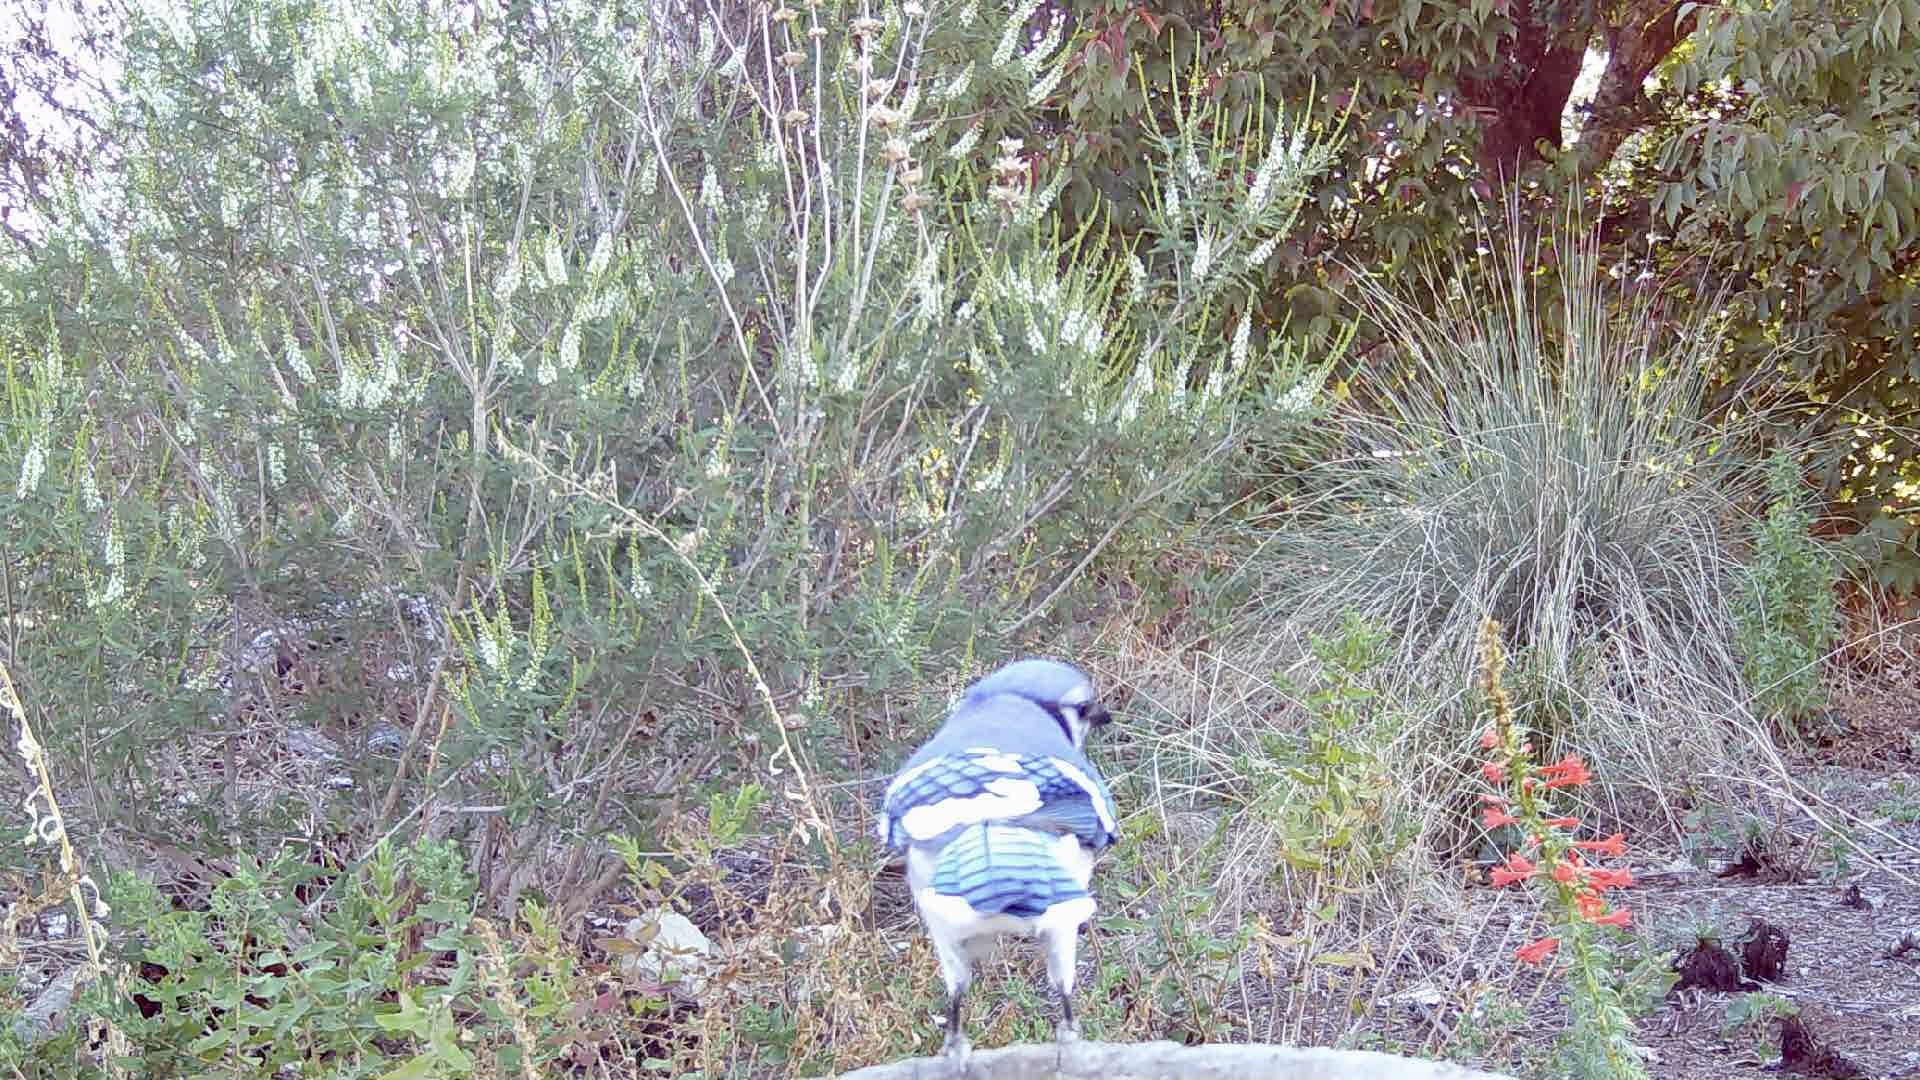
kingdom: Animalia
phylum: Chordata
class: Aves
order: Passeriformes
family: Corvidae
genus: Cyanocitta
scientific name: Cyanocitta cristata
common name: Blue jay
